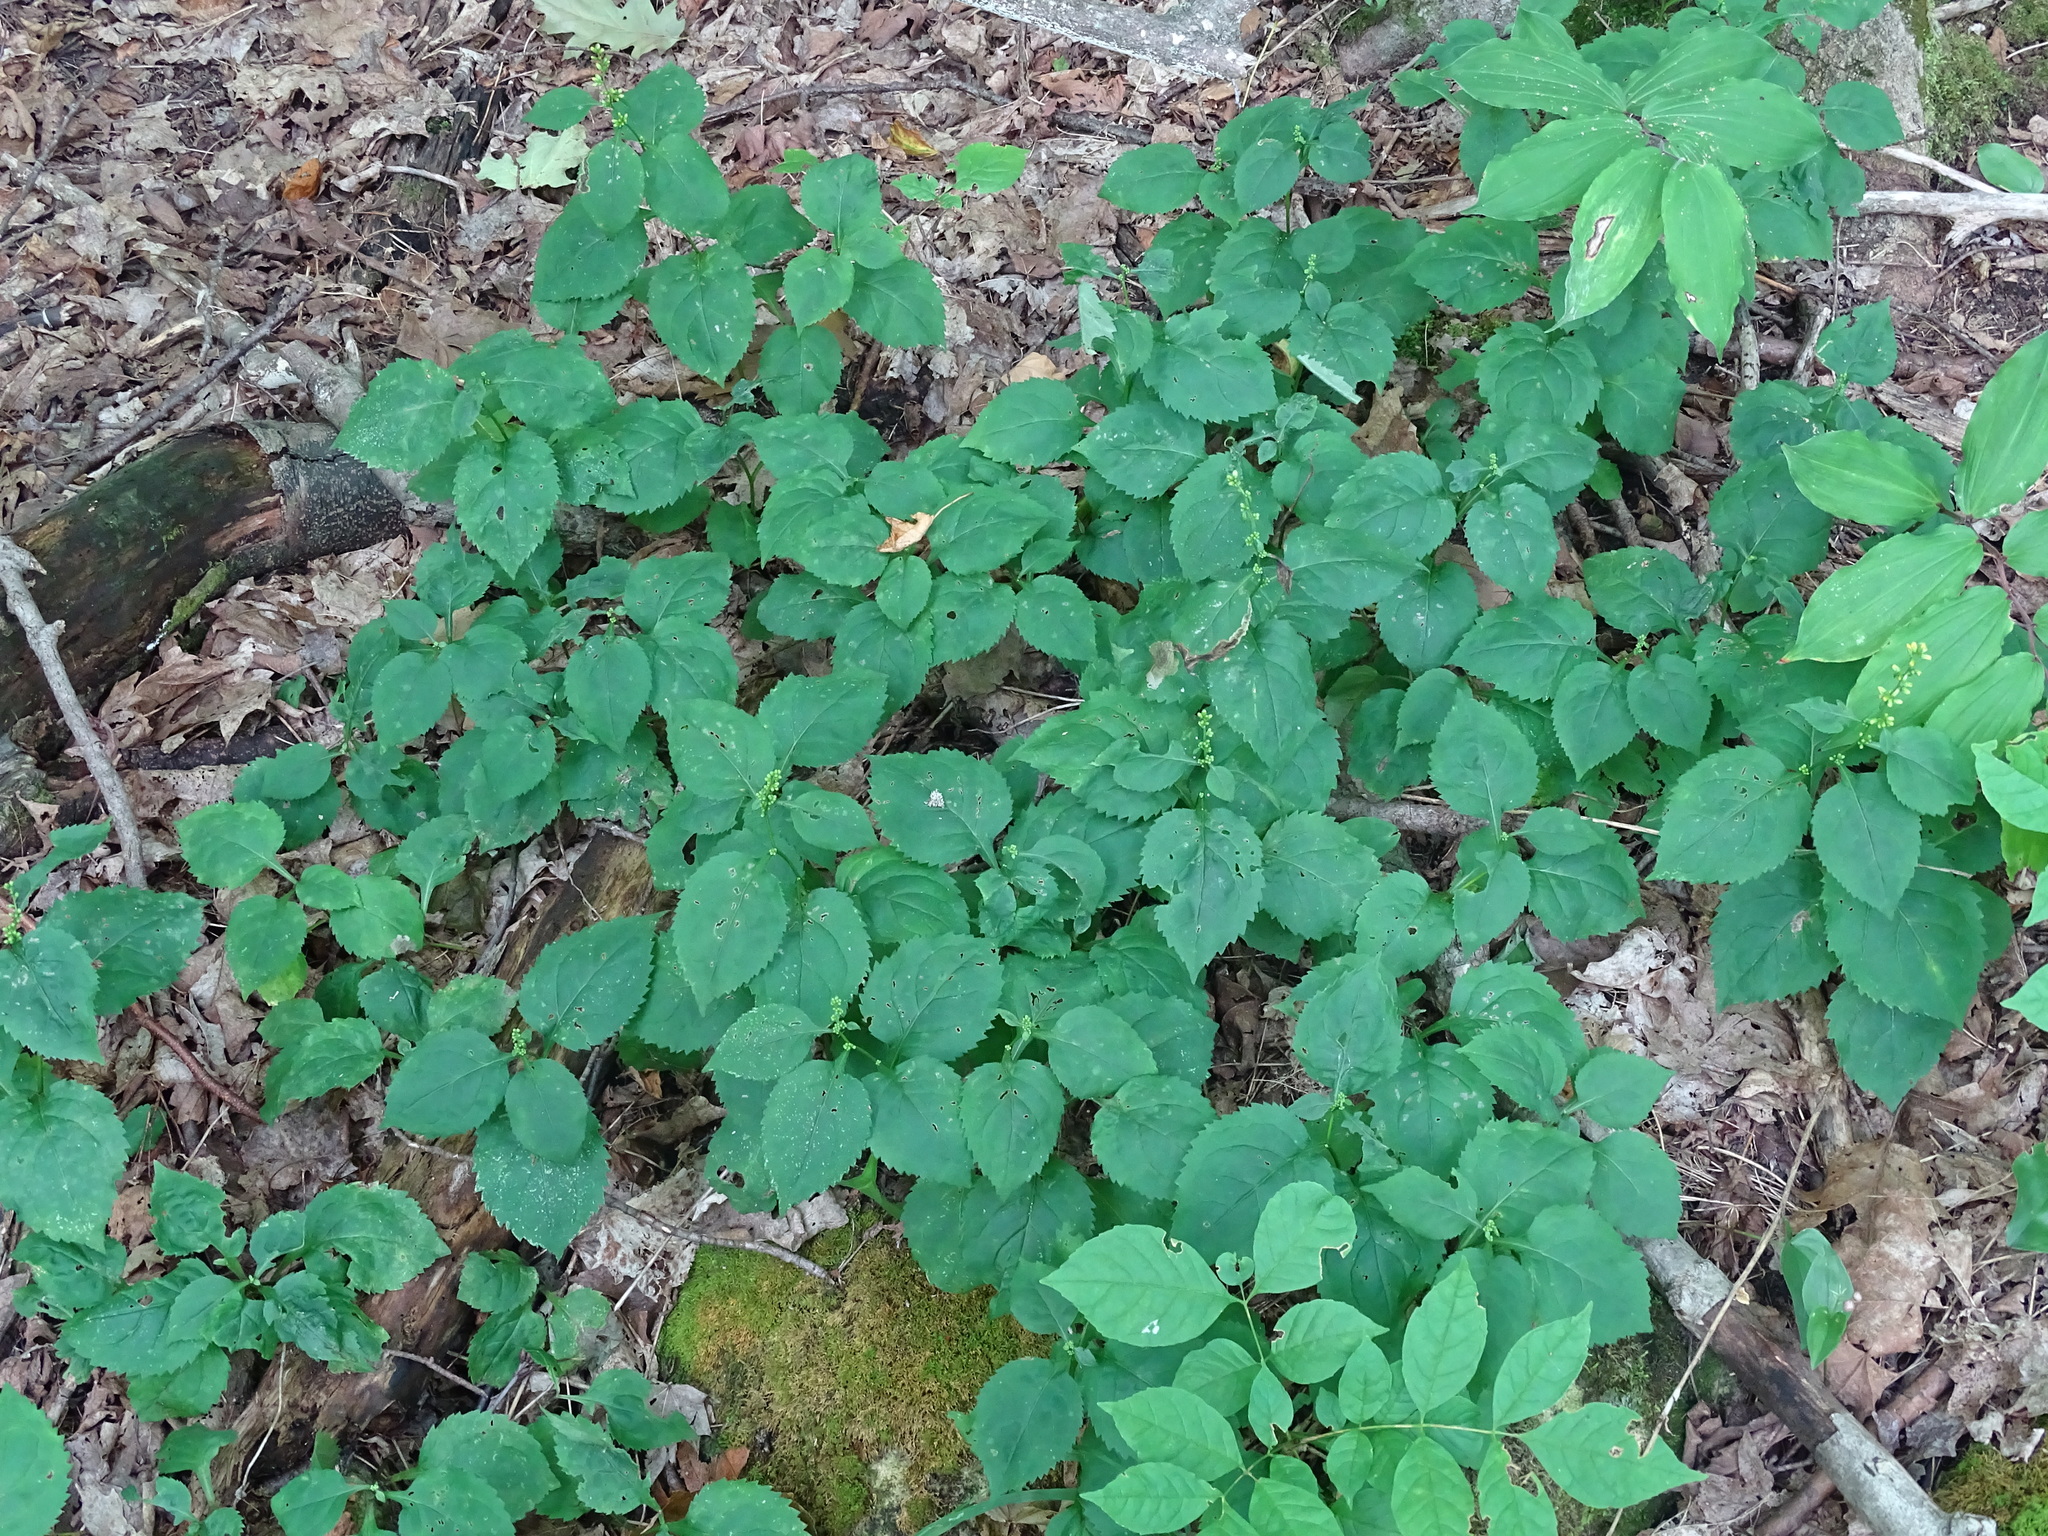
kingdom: Plantae
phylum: Tracheophyta
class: Magnoliopsida
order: Asterales
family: Asteraceae
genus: Solidago
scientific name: Solidago flexicaulis
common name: Zig-zag goldenrod
